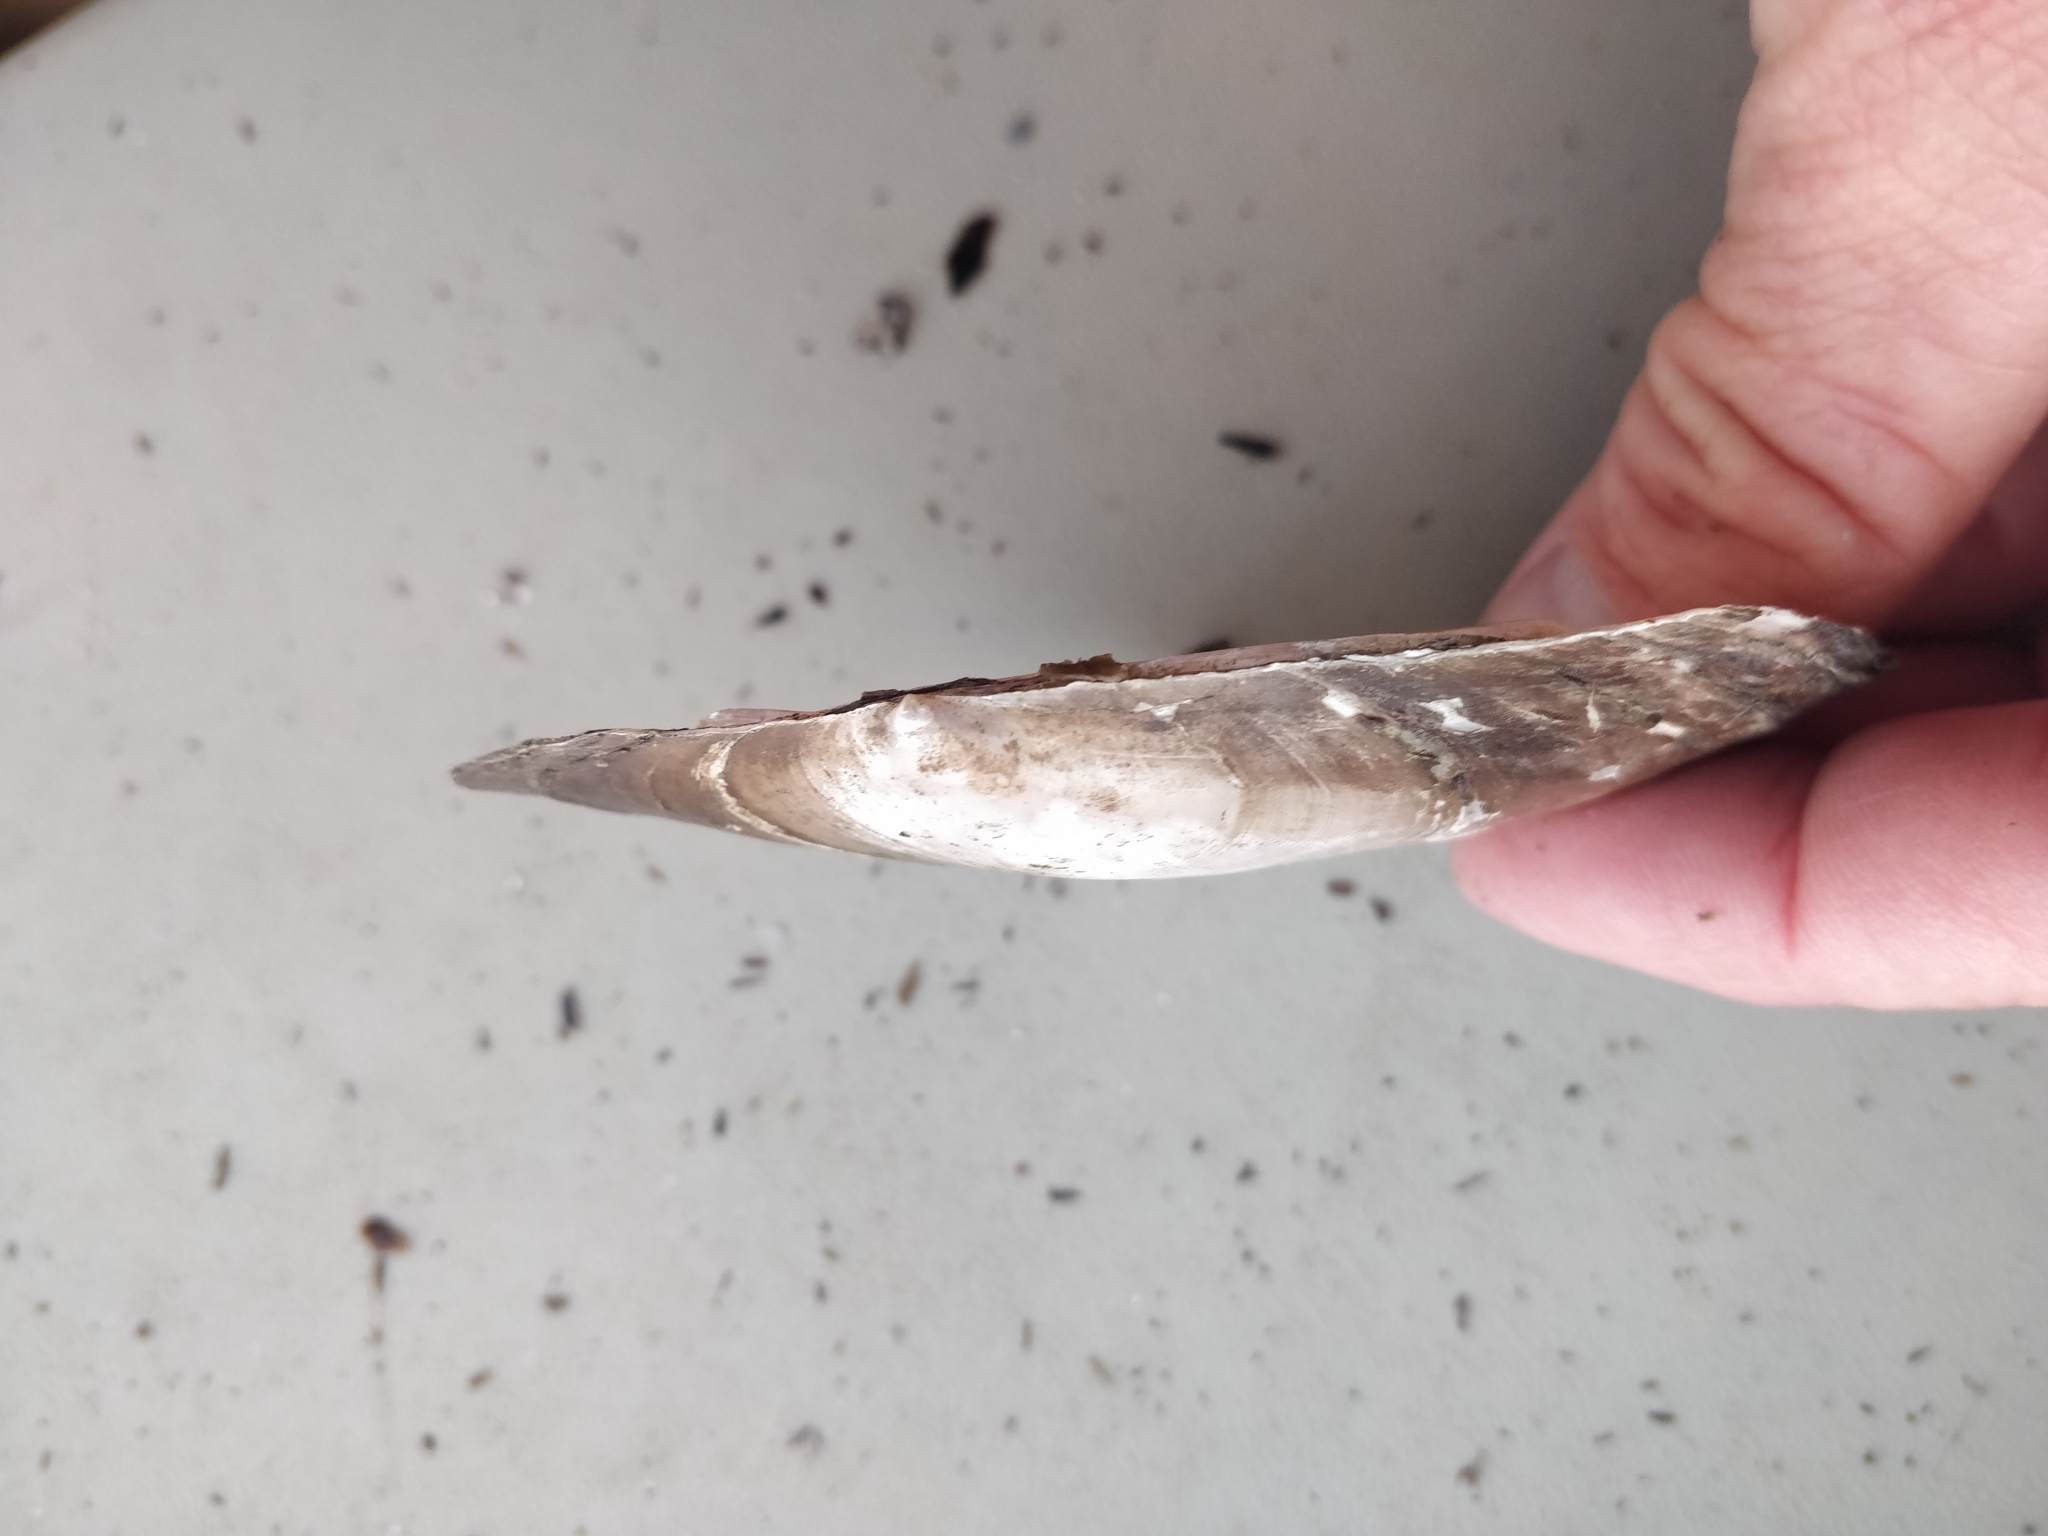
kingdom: Animalia
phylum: Mollusca
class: Bivalvia
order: Unionida
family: Unionidae
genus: Potamilus
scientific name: Potamilus ohiensis
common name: Pink papershell
